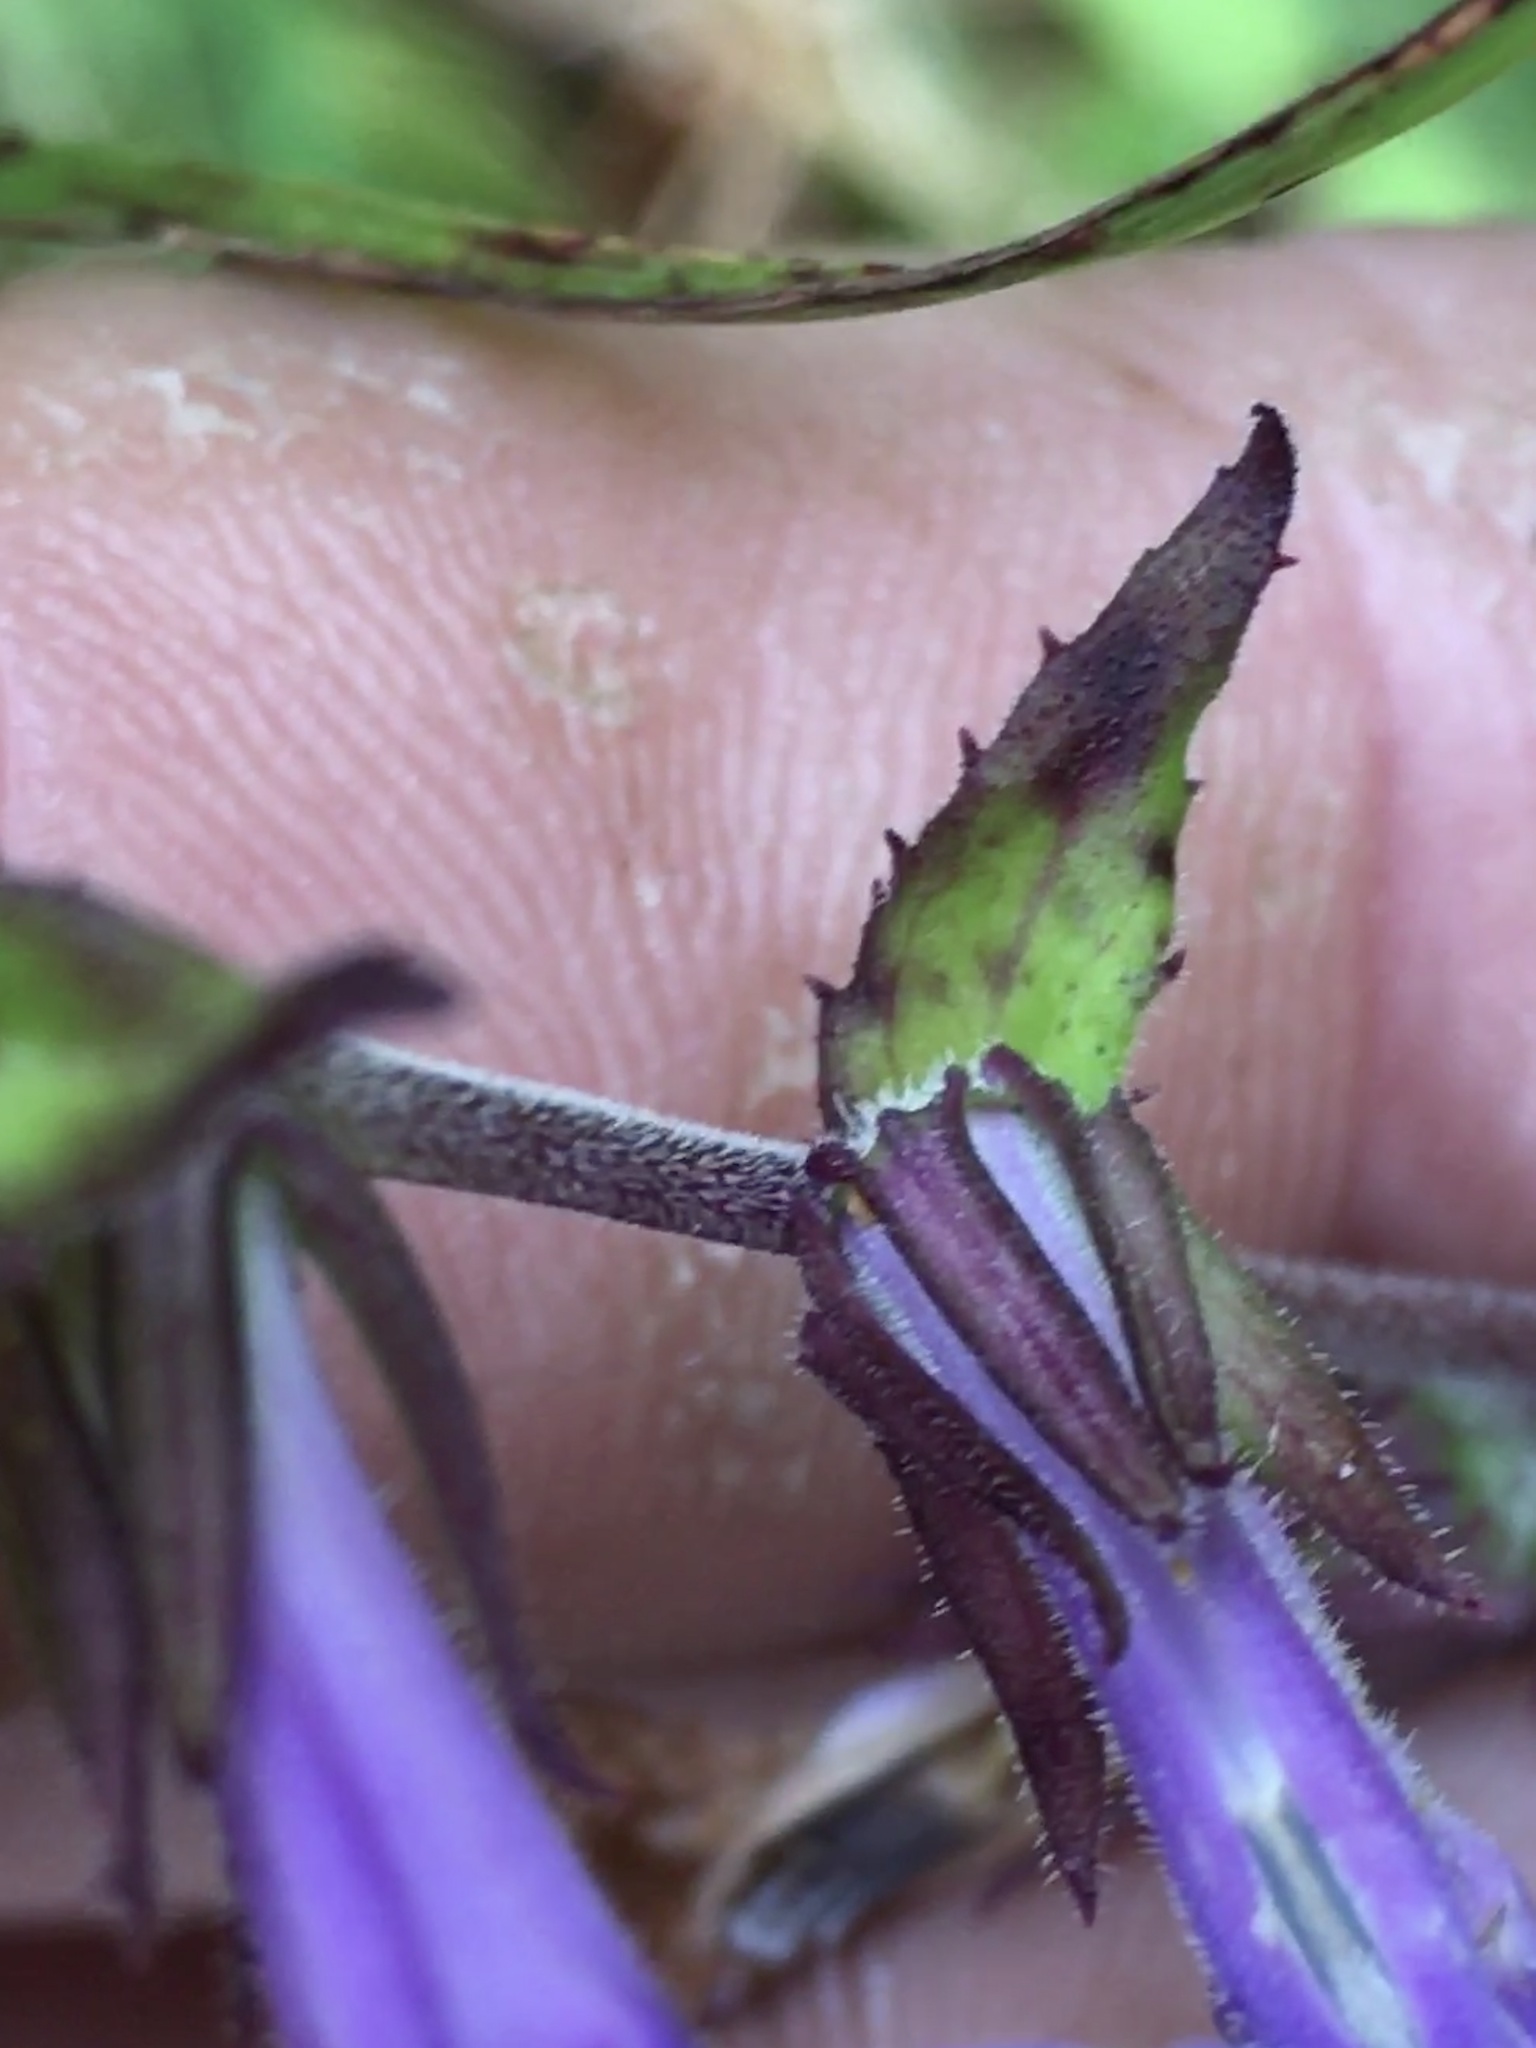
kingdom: Plantae
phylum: Tracheophyta
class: Magnoliopsida
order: Asterales
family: Campanulaceae
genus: Lobelia
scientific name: Lobelia puberula
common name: Purple dewdrop
